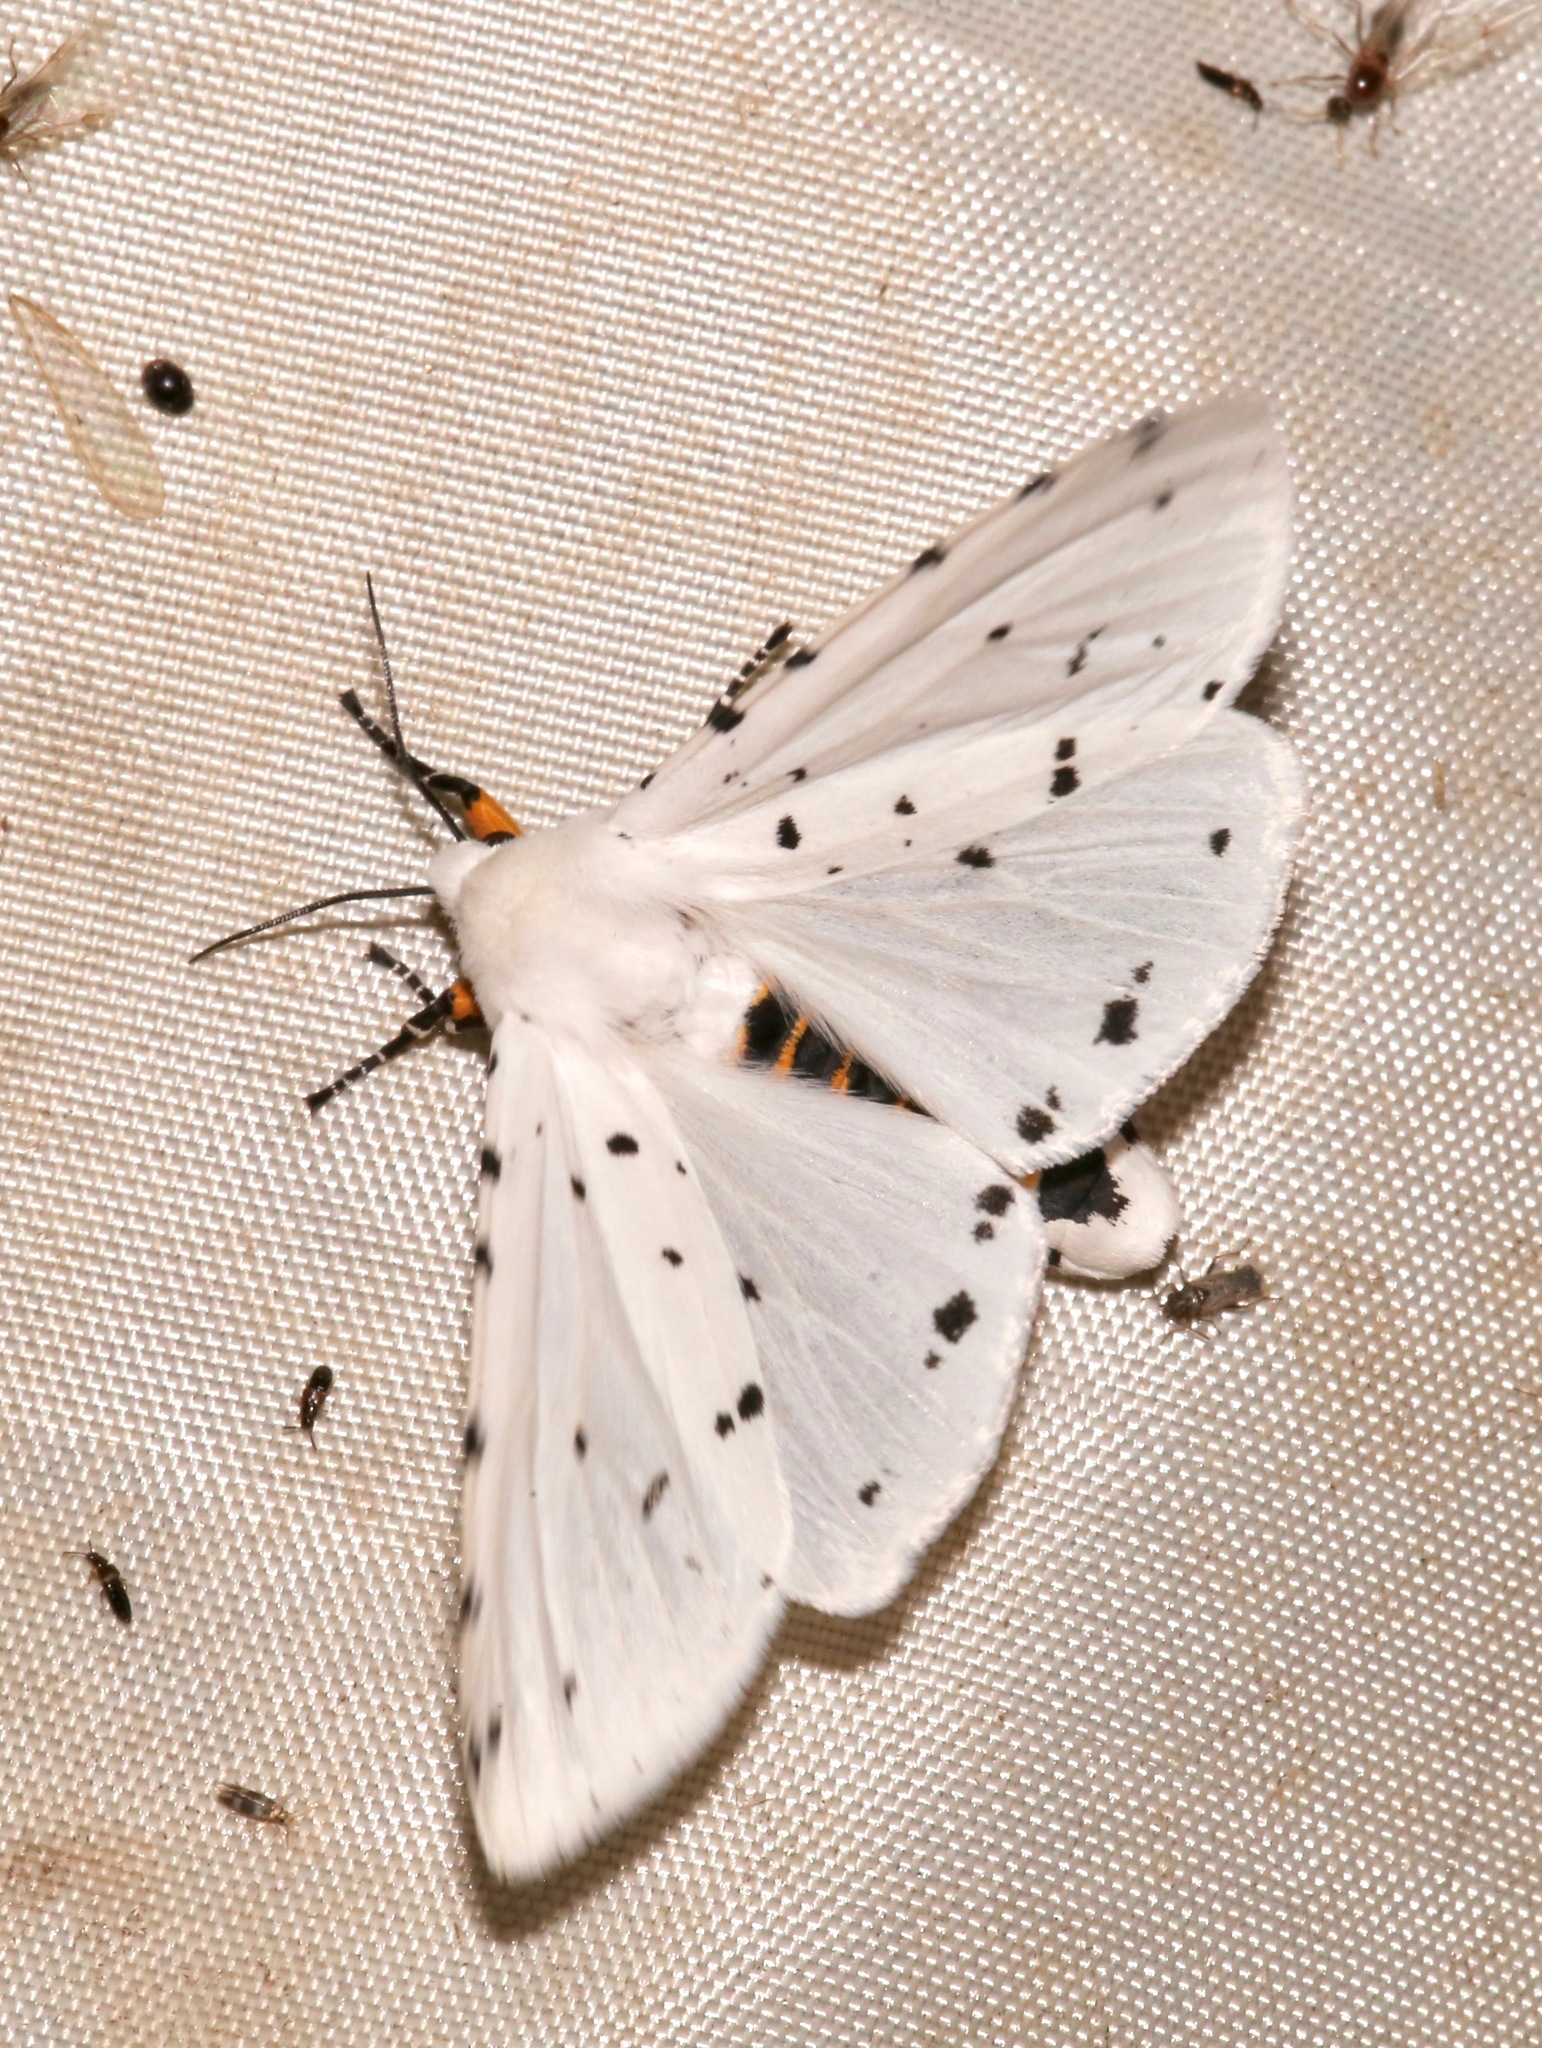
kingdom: Animalia
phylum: Arthropoda
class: Insecta
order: Lepidoptera
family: Erebidae
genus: Estigmene
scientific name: Estigmene albida
